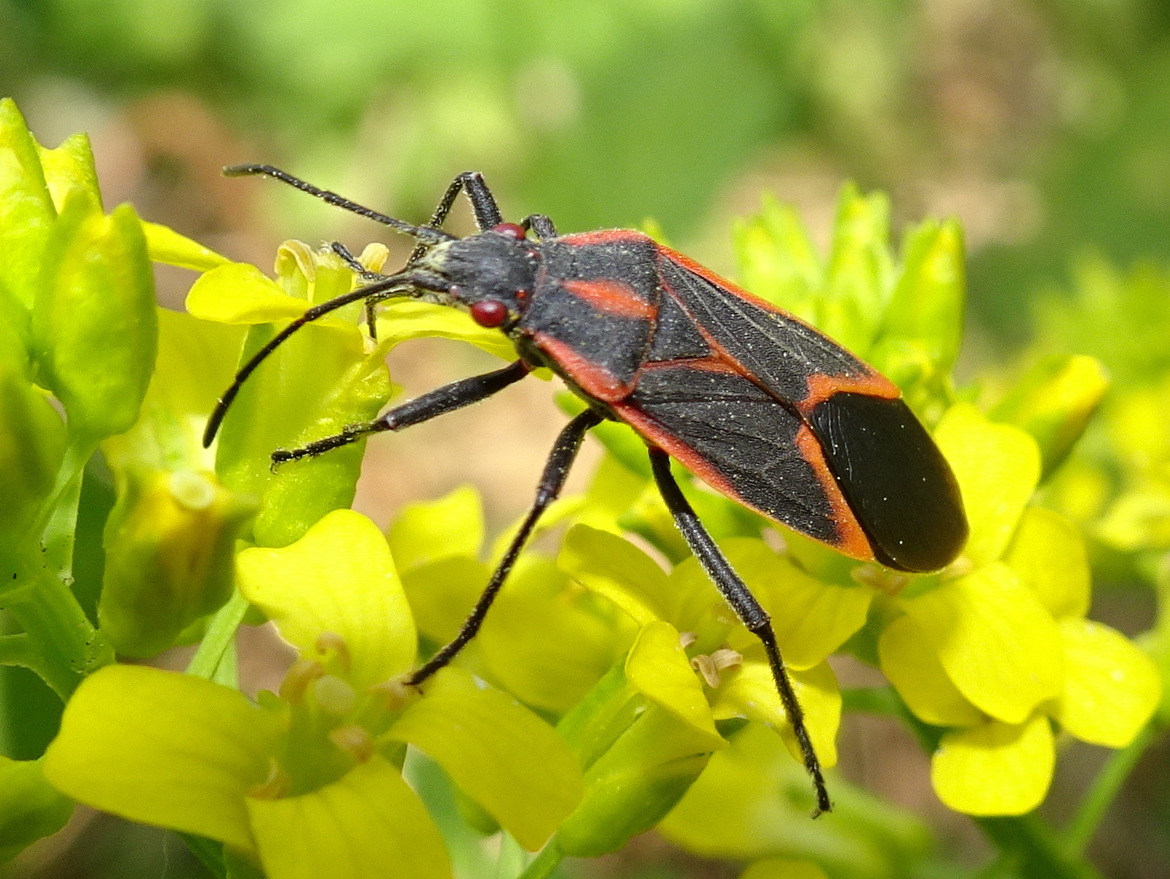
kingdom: Animalia
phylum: Arthropoda
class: Insecta
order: Hemiptera
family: Rhopalidae
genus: Boisea
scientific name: Boisea trivittata
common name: Boxelder bug
